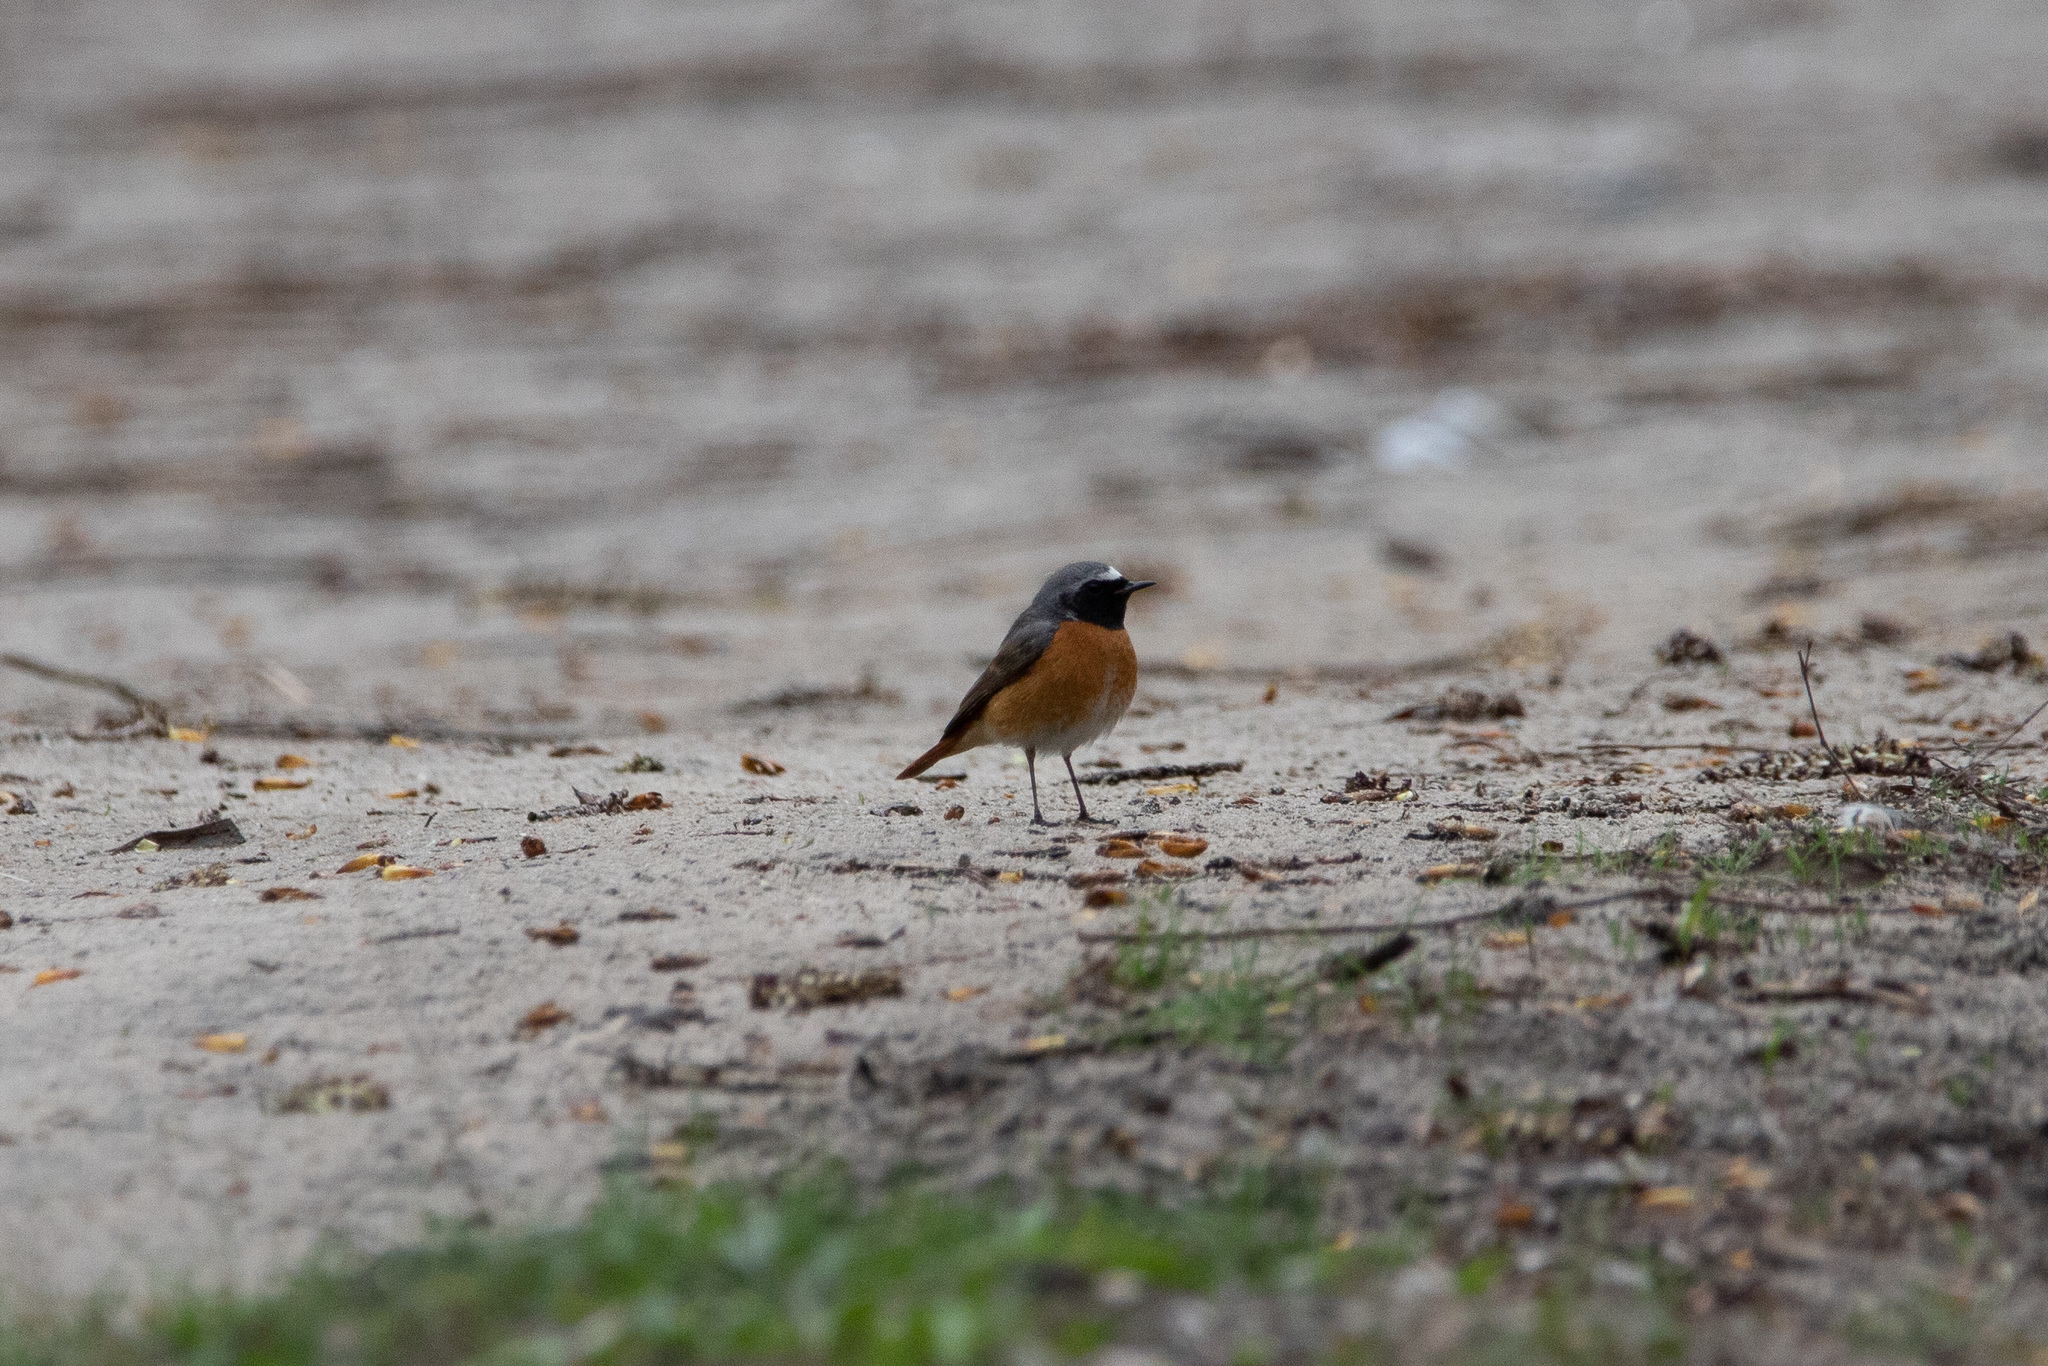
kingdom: Animalia
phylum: Chordata
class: Aves
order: Passeriformes
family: Muscicapidae
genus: Phoenicurus
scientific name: Phoenicurus phoenicurus
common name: Common redstart
